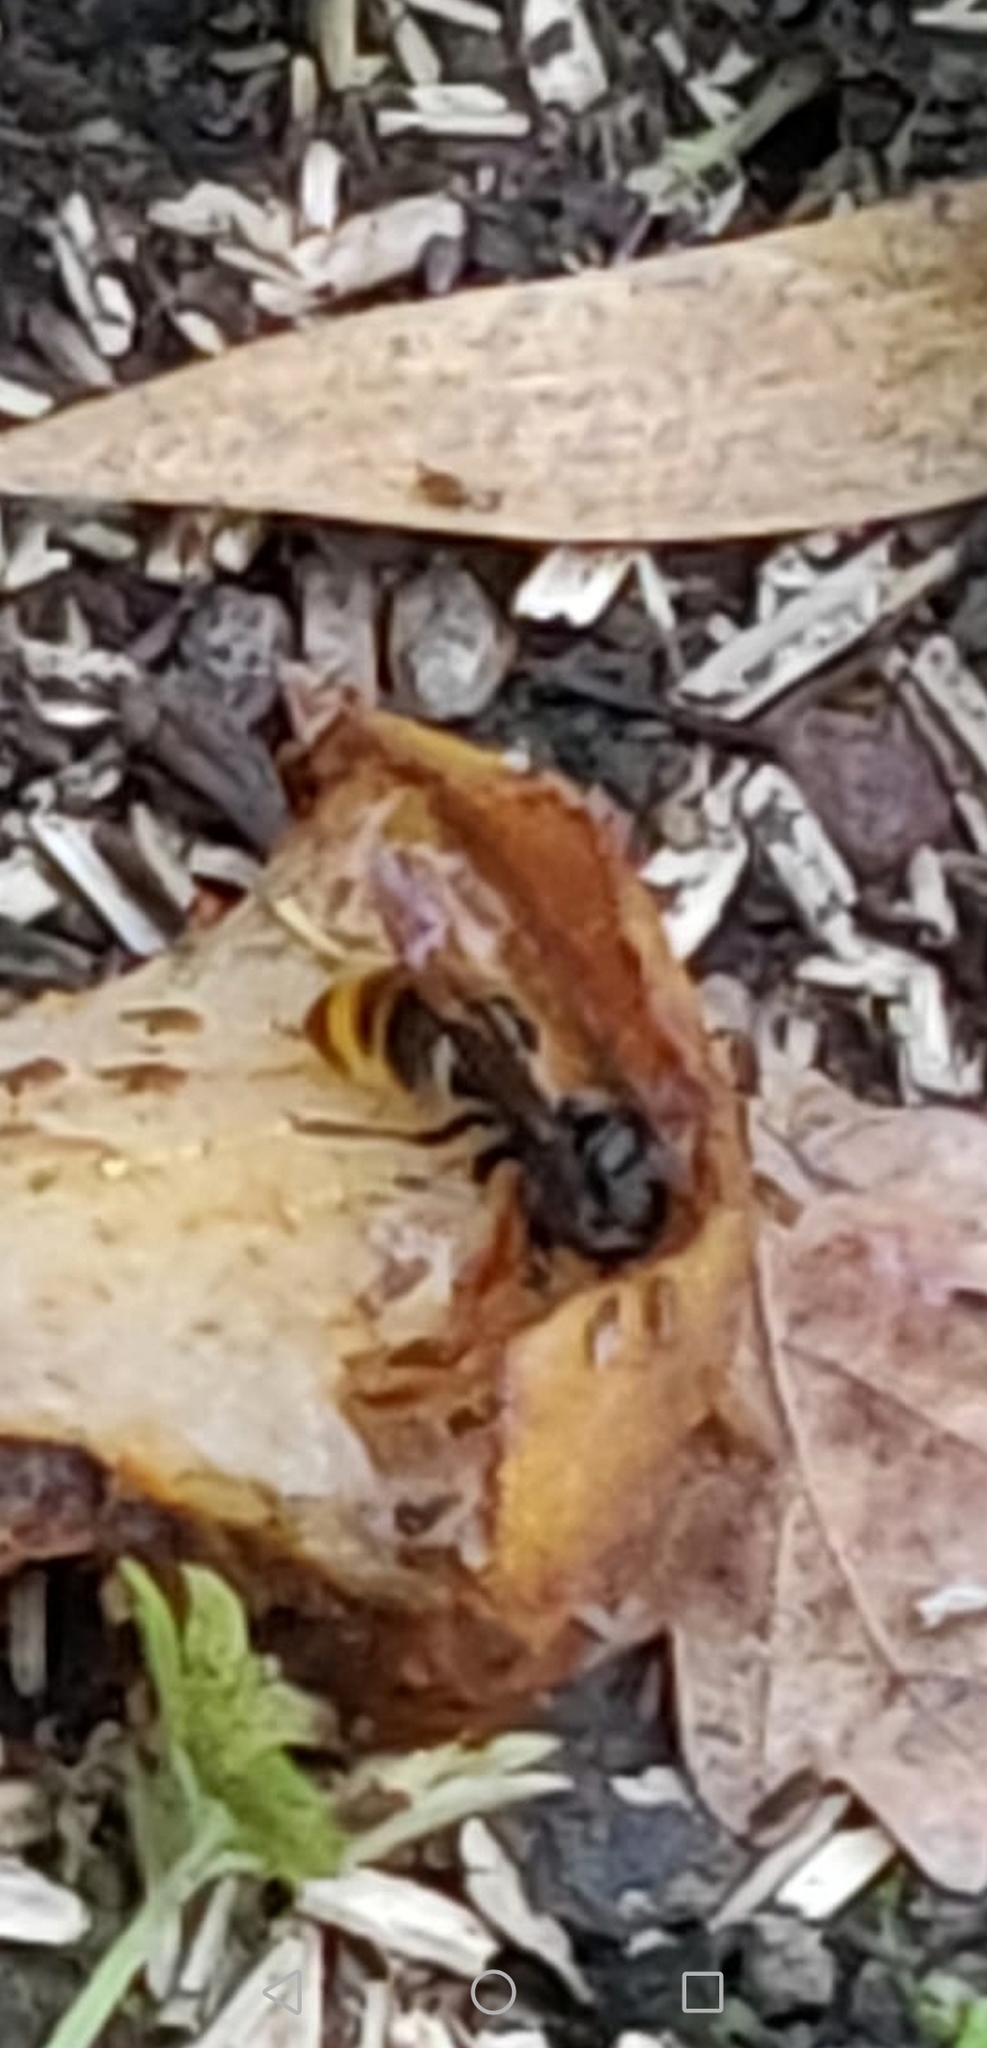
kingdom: Animalia
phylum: Arthropoda
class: Insecta
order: Hymenoptera
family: Vespidae
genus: Vespa
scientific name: Vespa velutina
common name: Asian hornet
